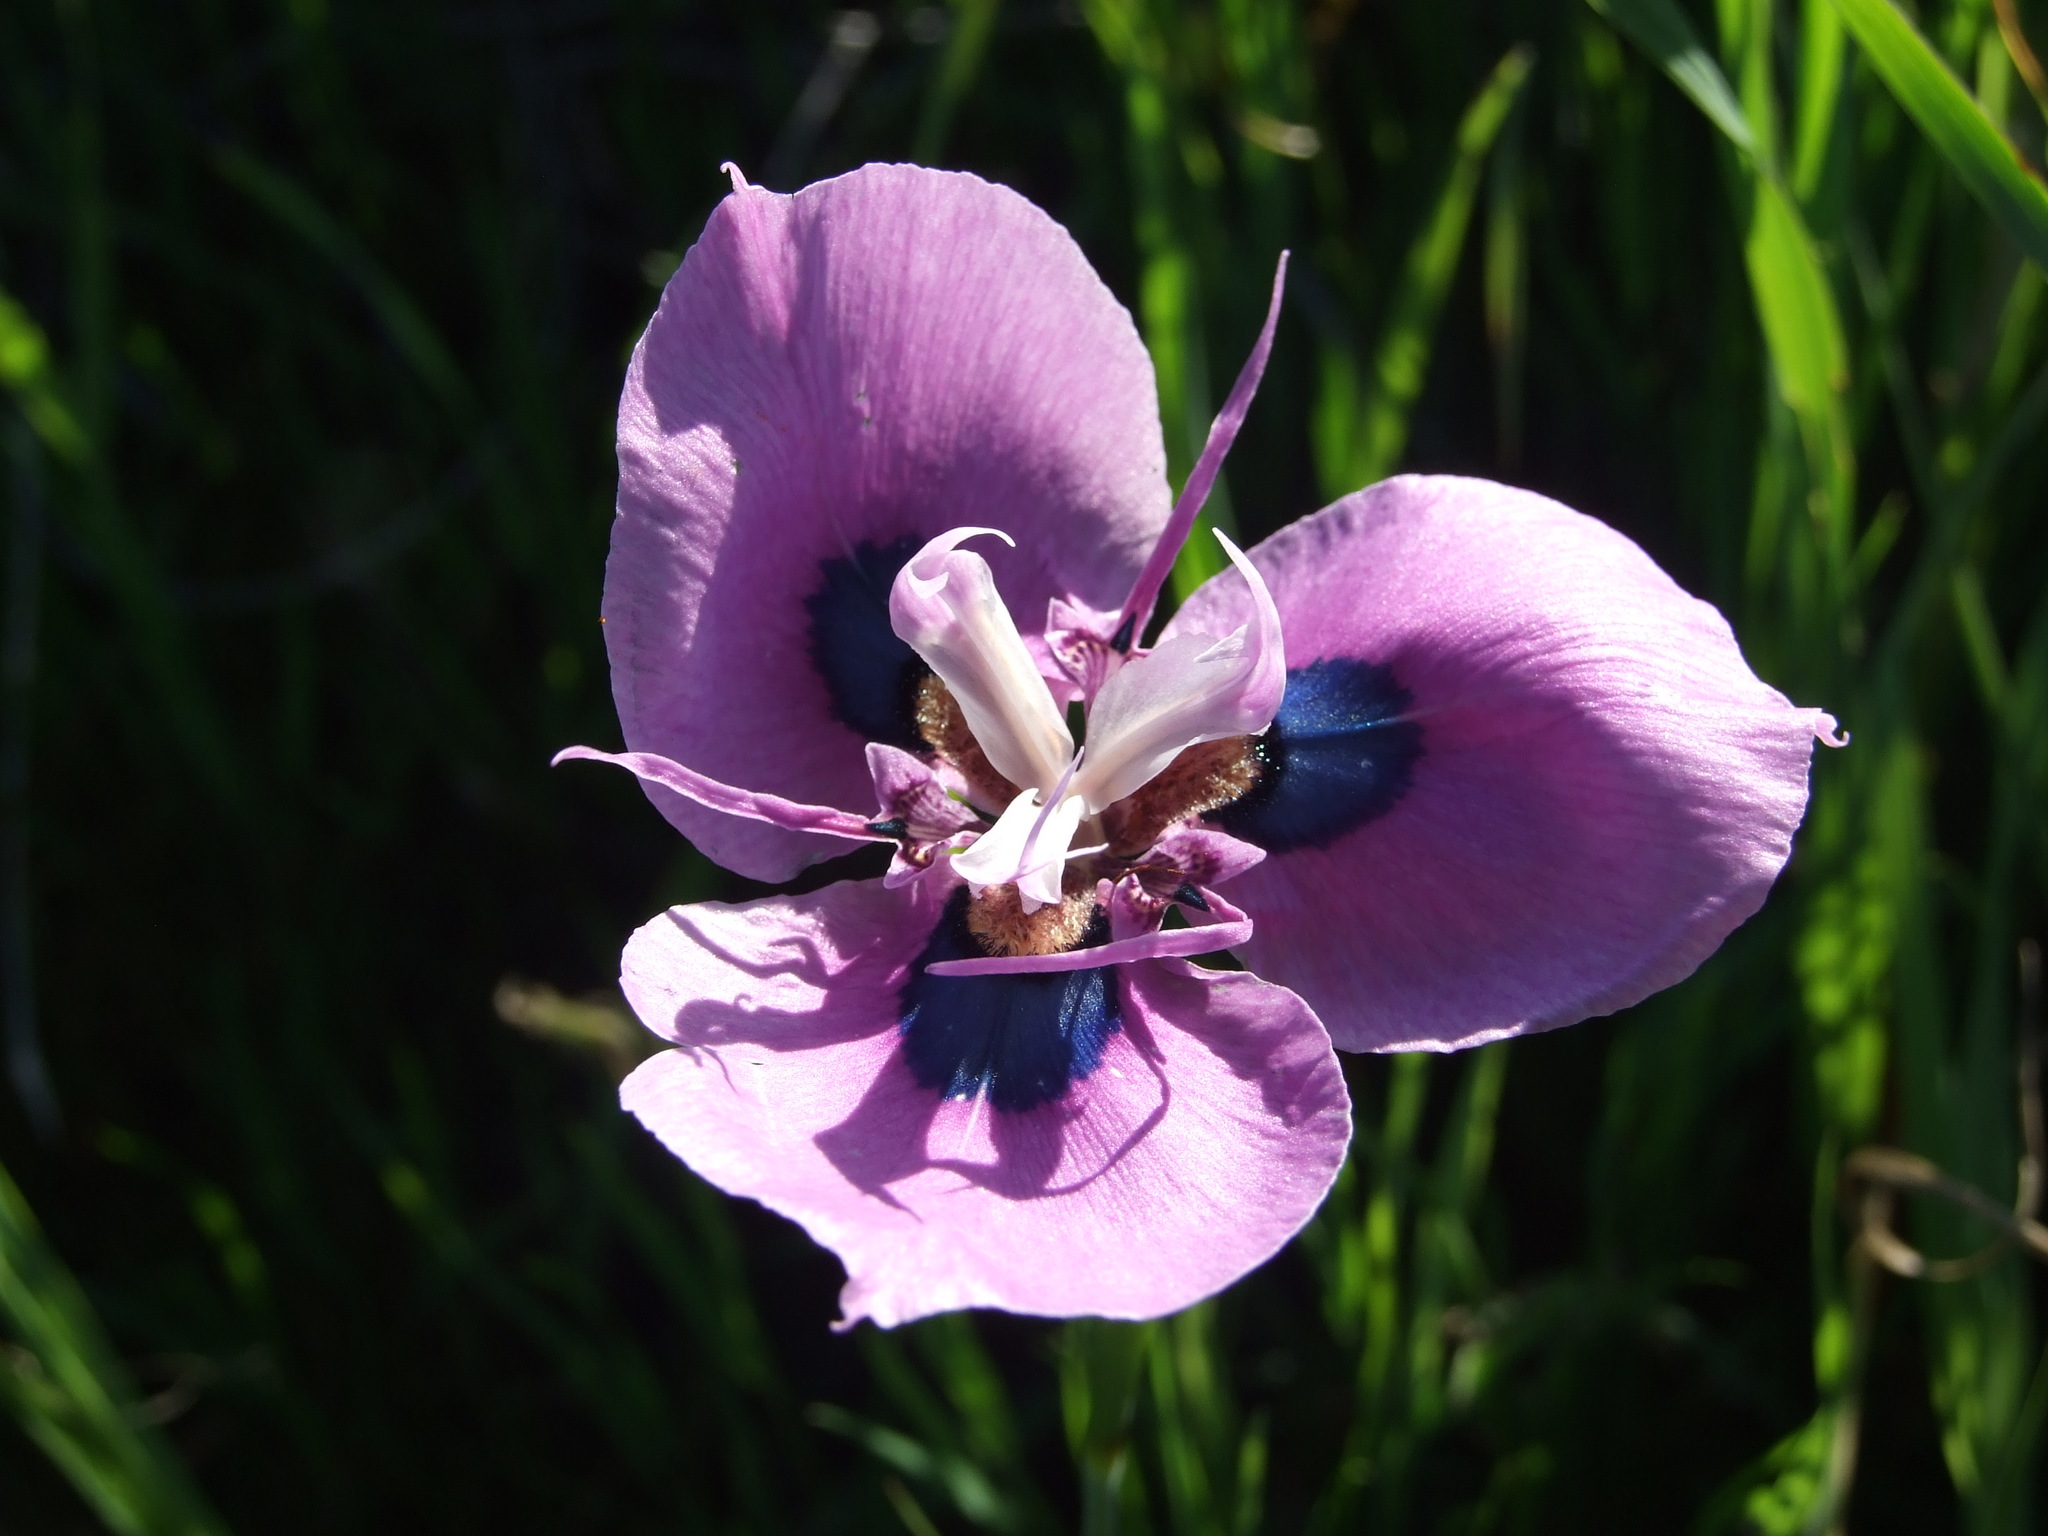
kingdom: Plantae
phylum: Tracheophyta
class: Liliopsida
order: Asparagales
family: Iridaceae
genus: Moraea
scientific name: Moraea villosa
